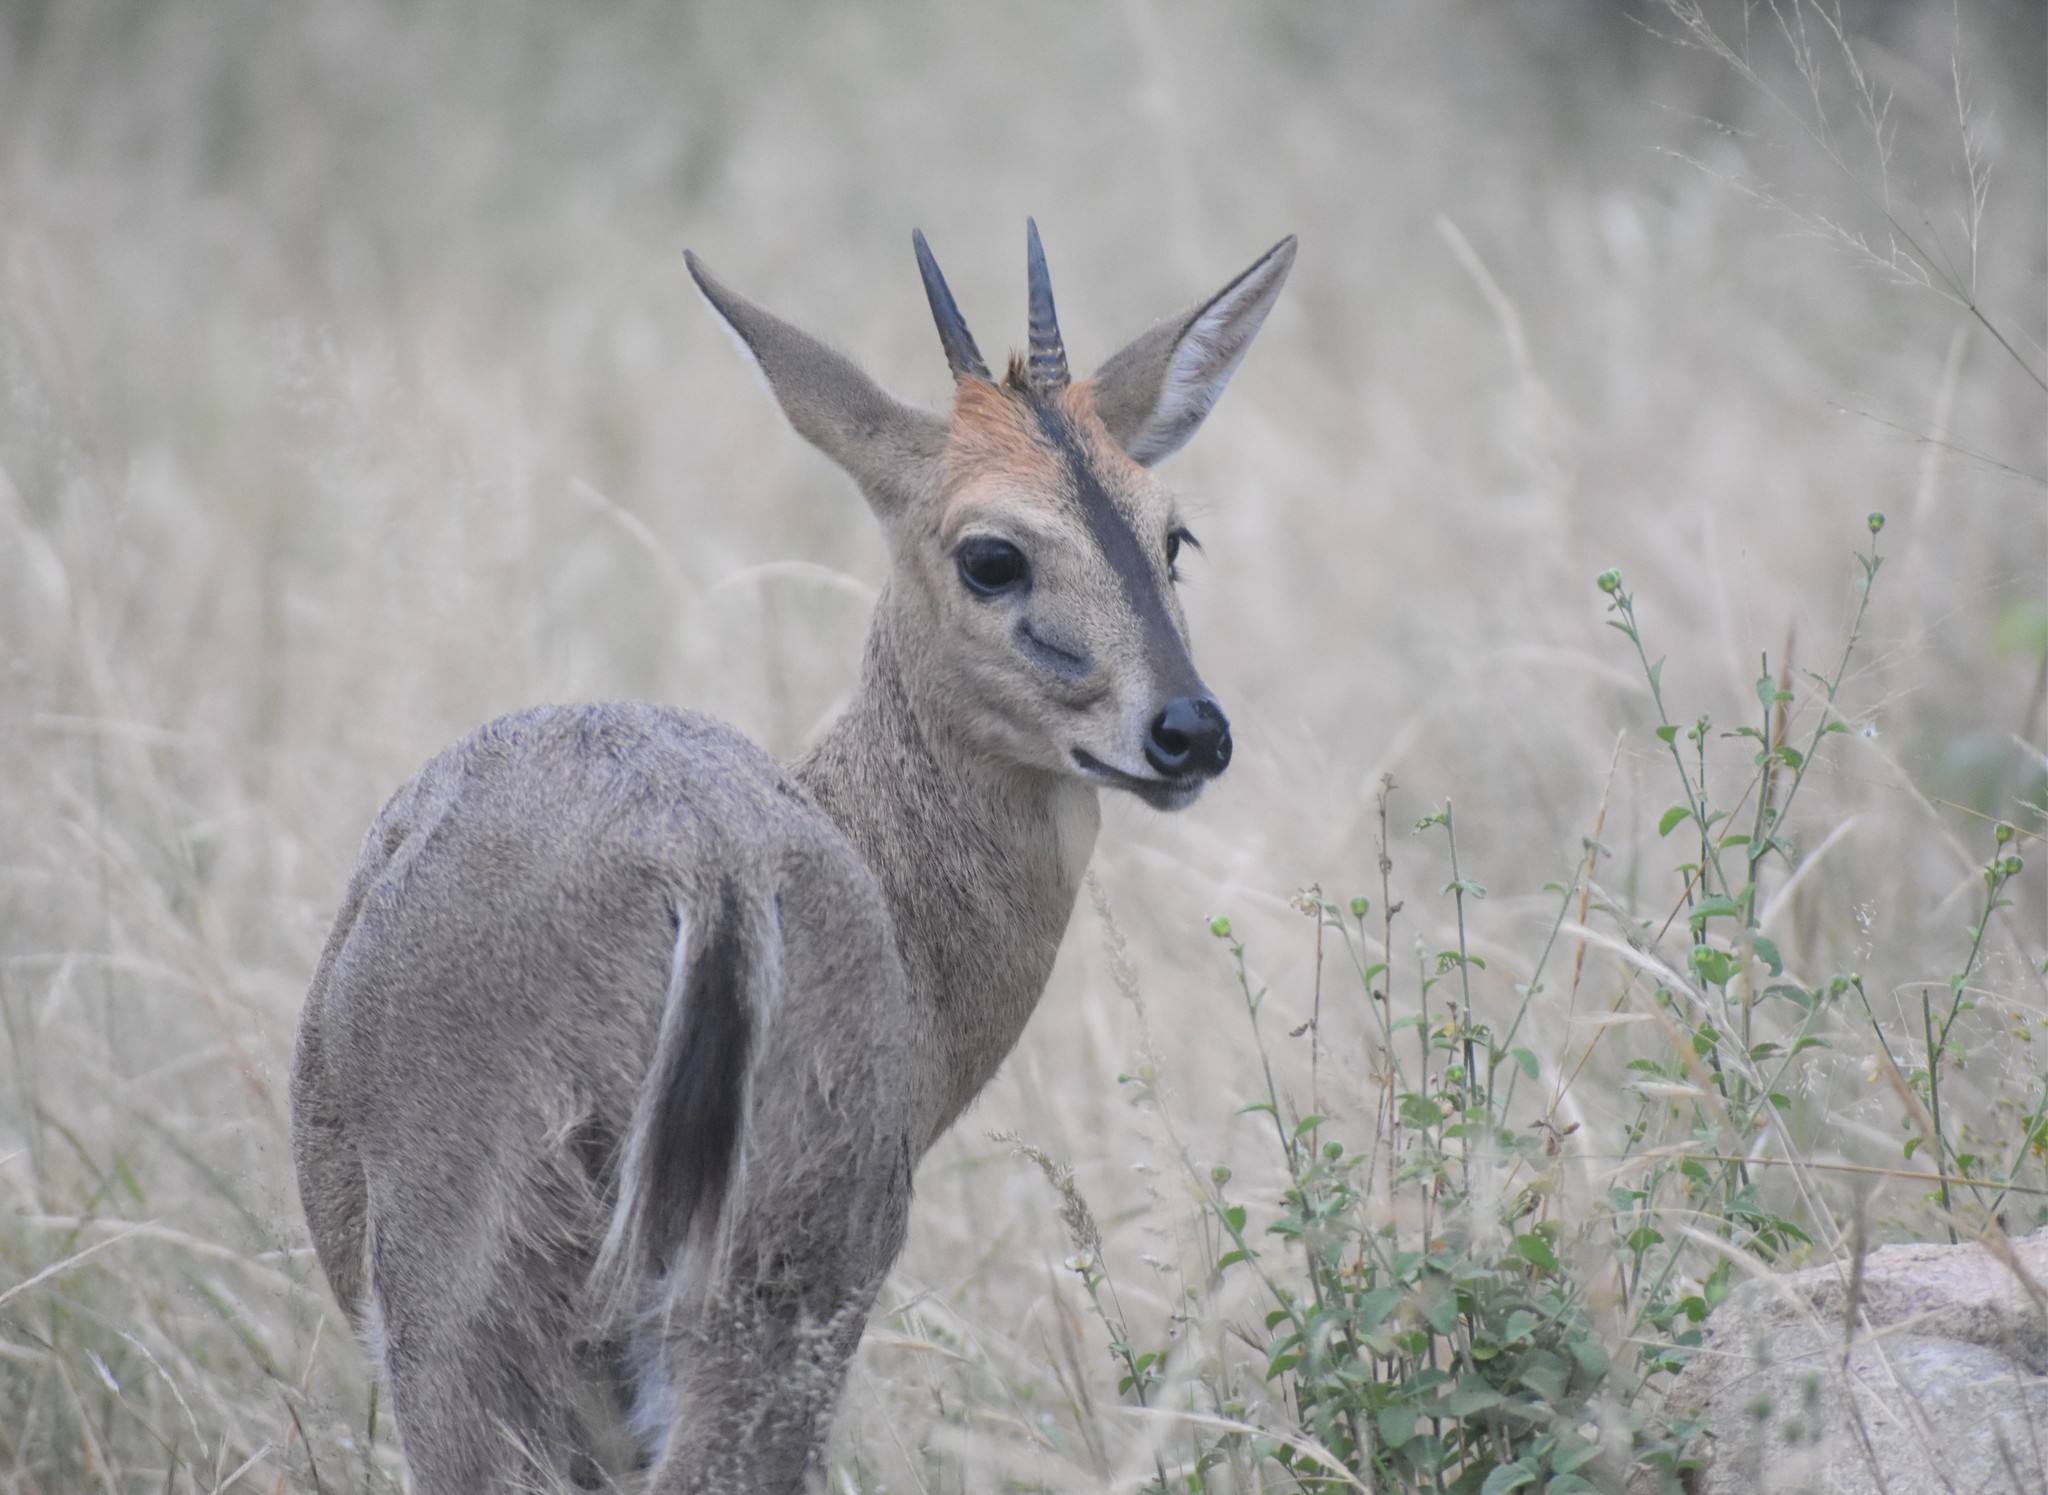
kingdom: Animalia
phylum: Chordata
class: Mammalia
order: Artiodactyla
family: Bovidae
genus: Sylvicapra
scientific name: Sylvicapra grimmia
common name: Bush duiker
